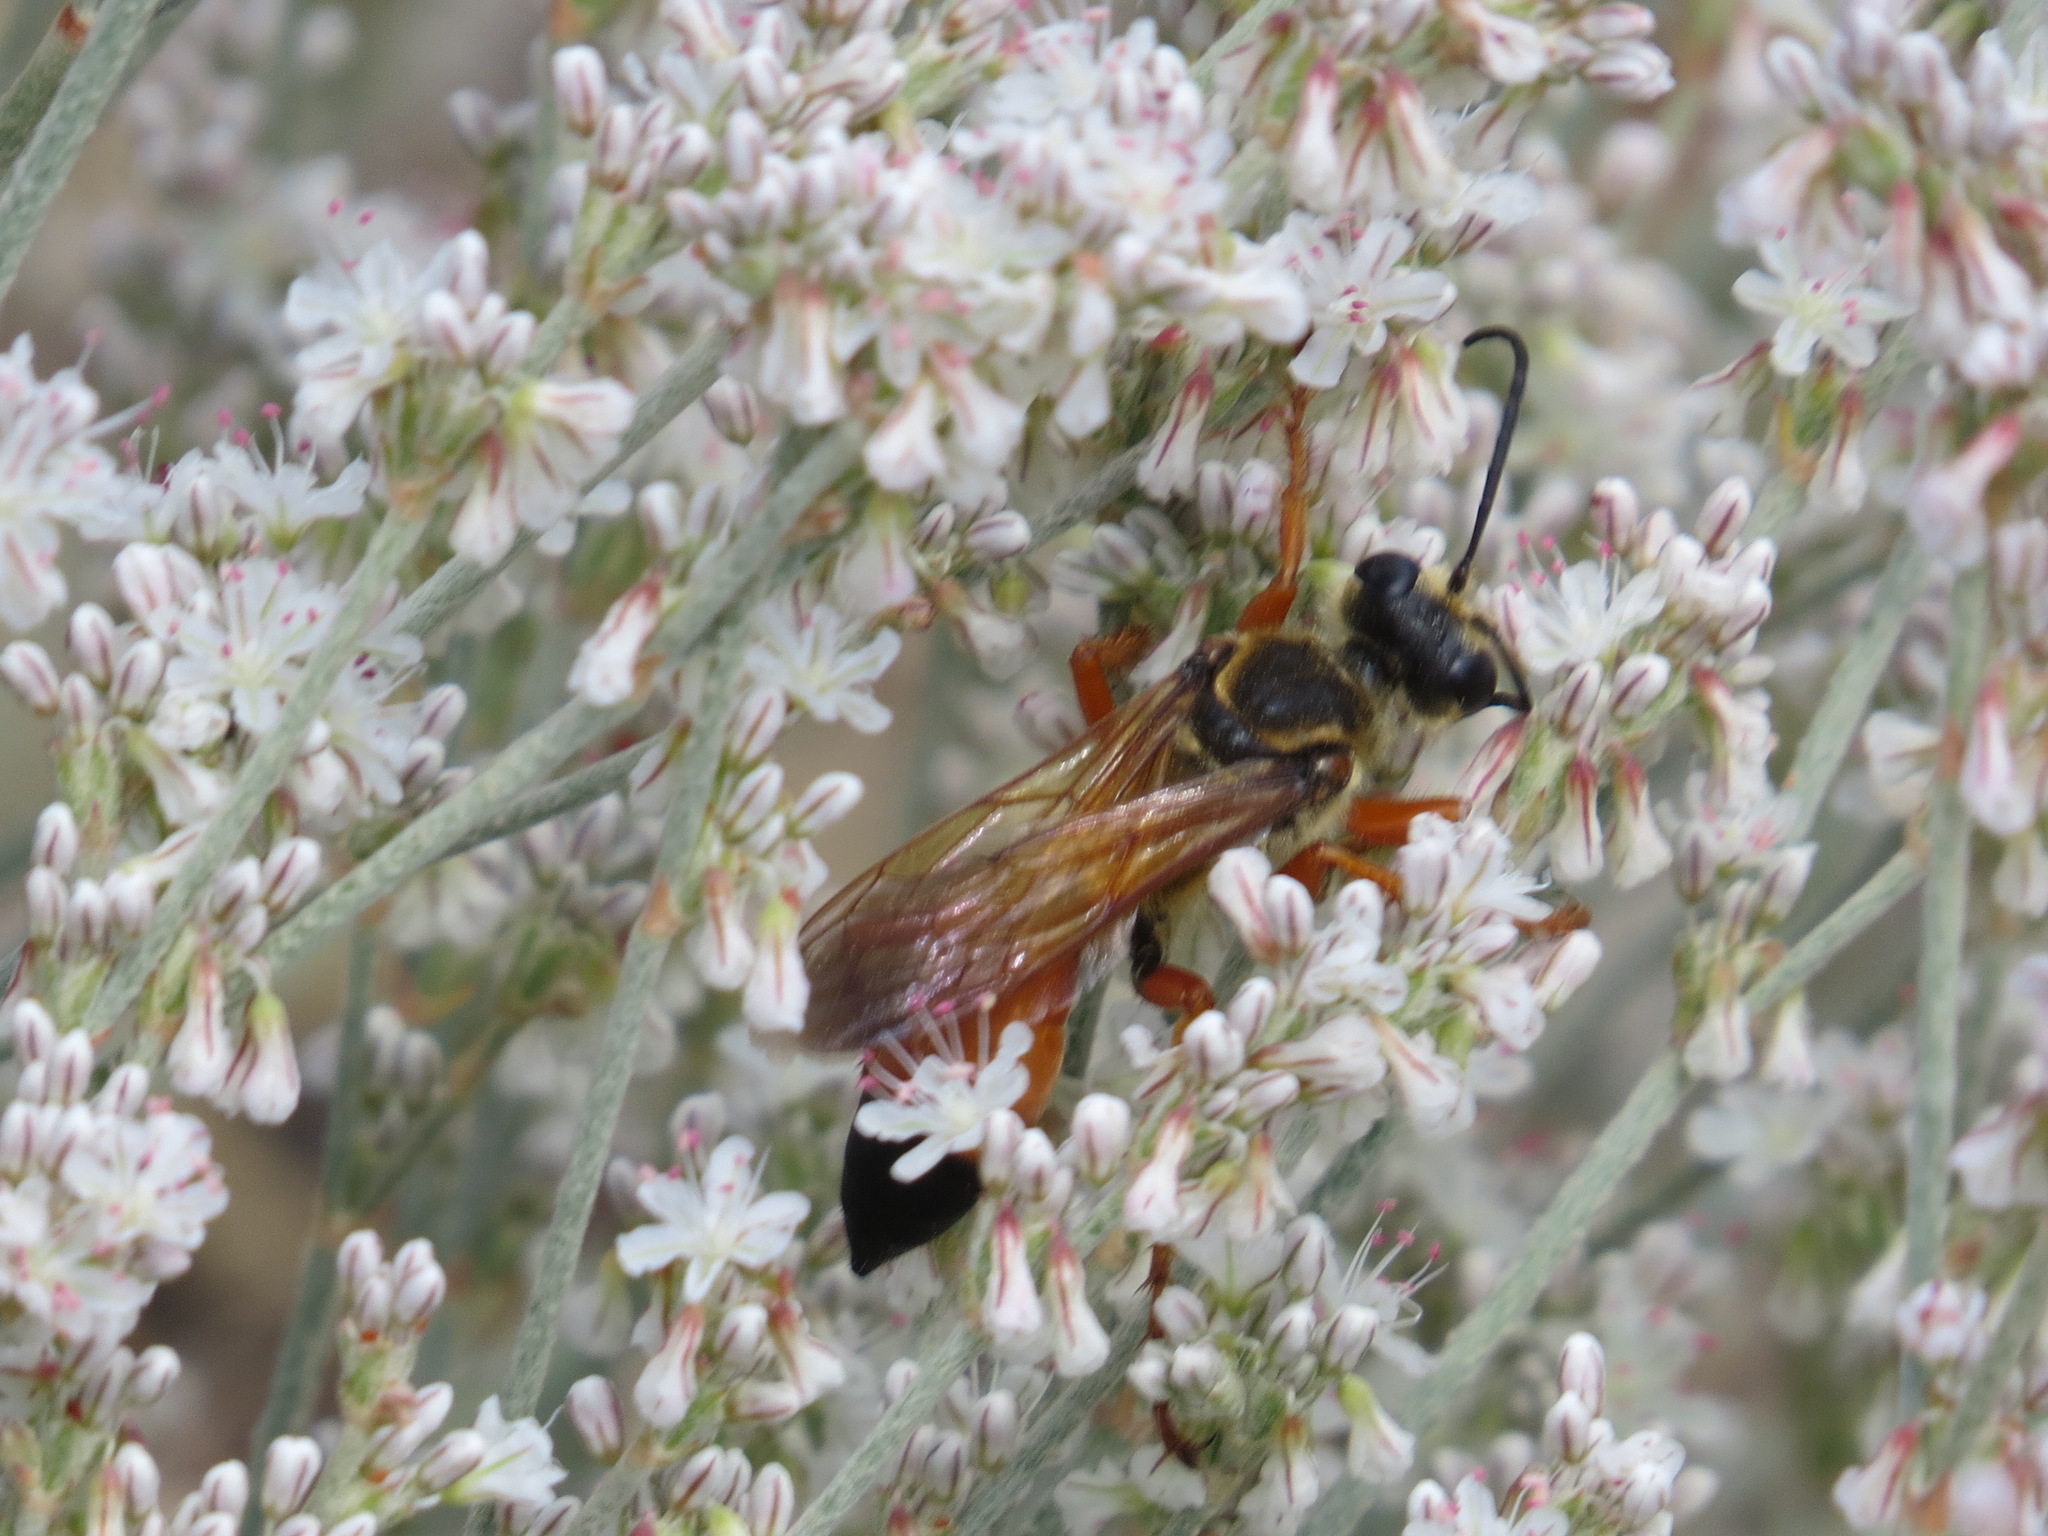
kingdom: Animalia
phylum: Arthropoda
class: Insecta
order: Hymenoptera
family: Sphecidae
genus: Sphex
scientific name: Sphex ichneumoneus
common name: Great golden digger wasp
